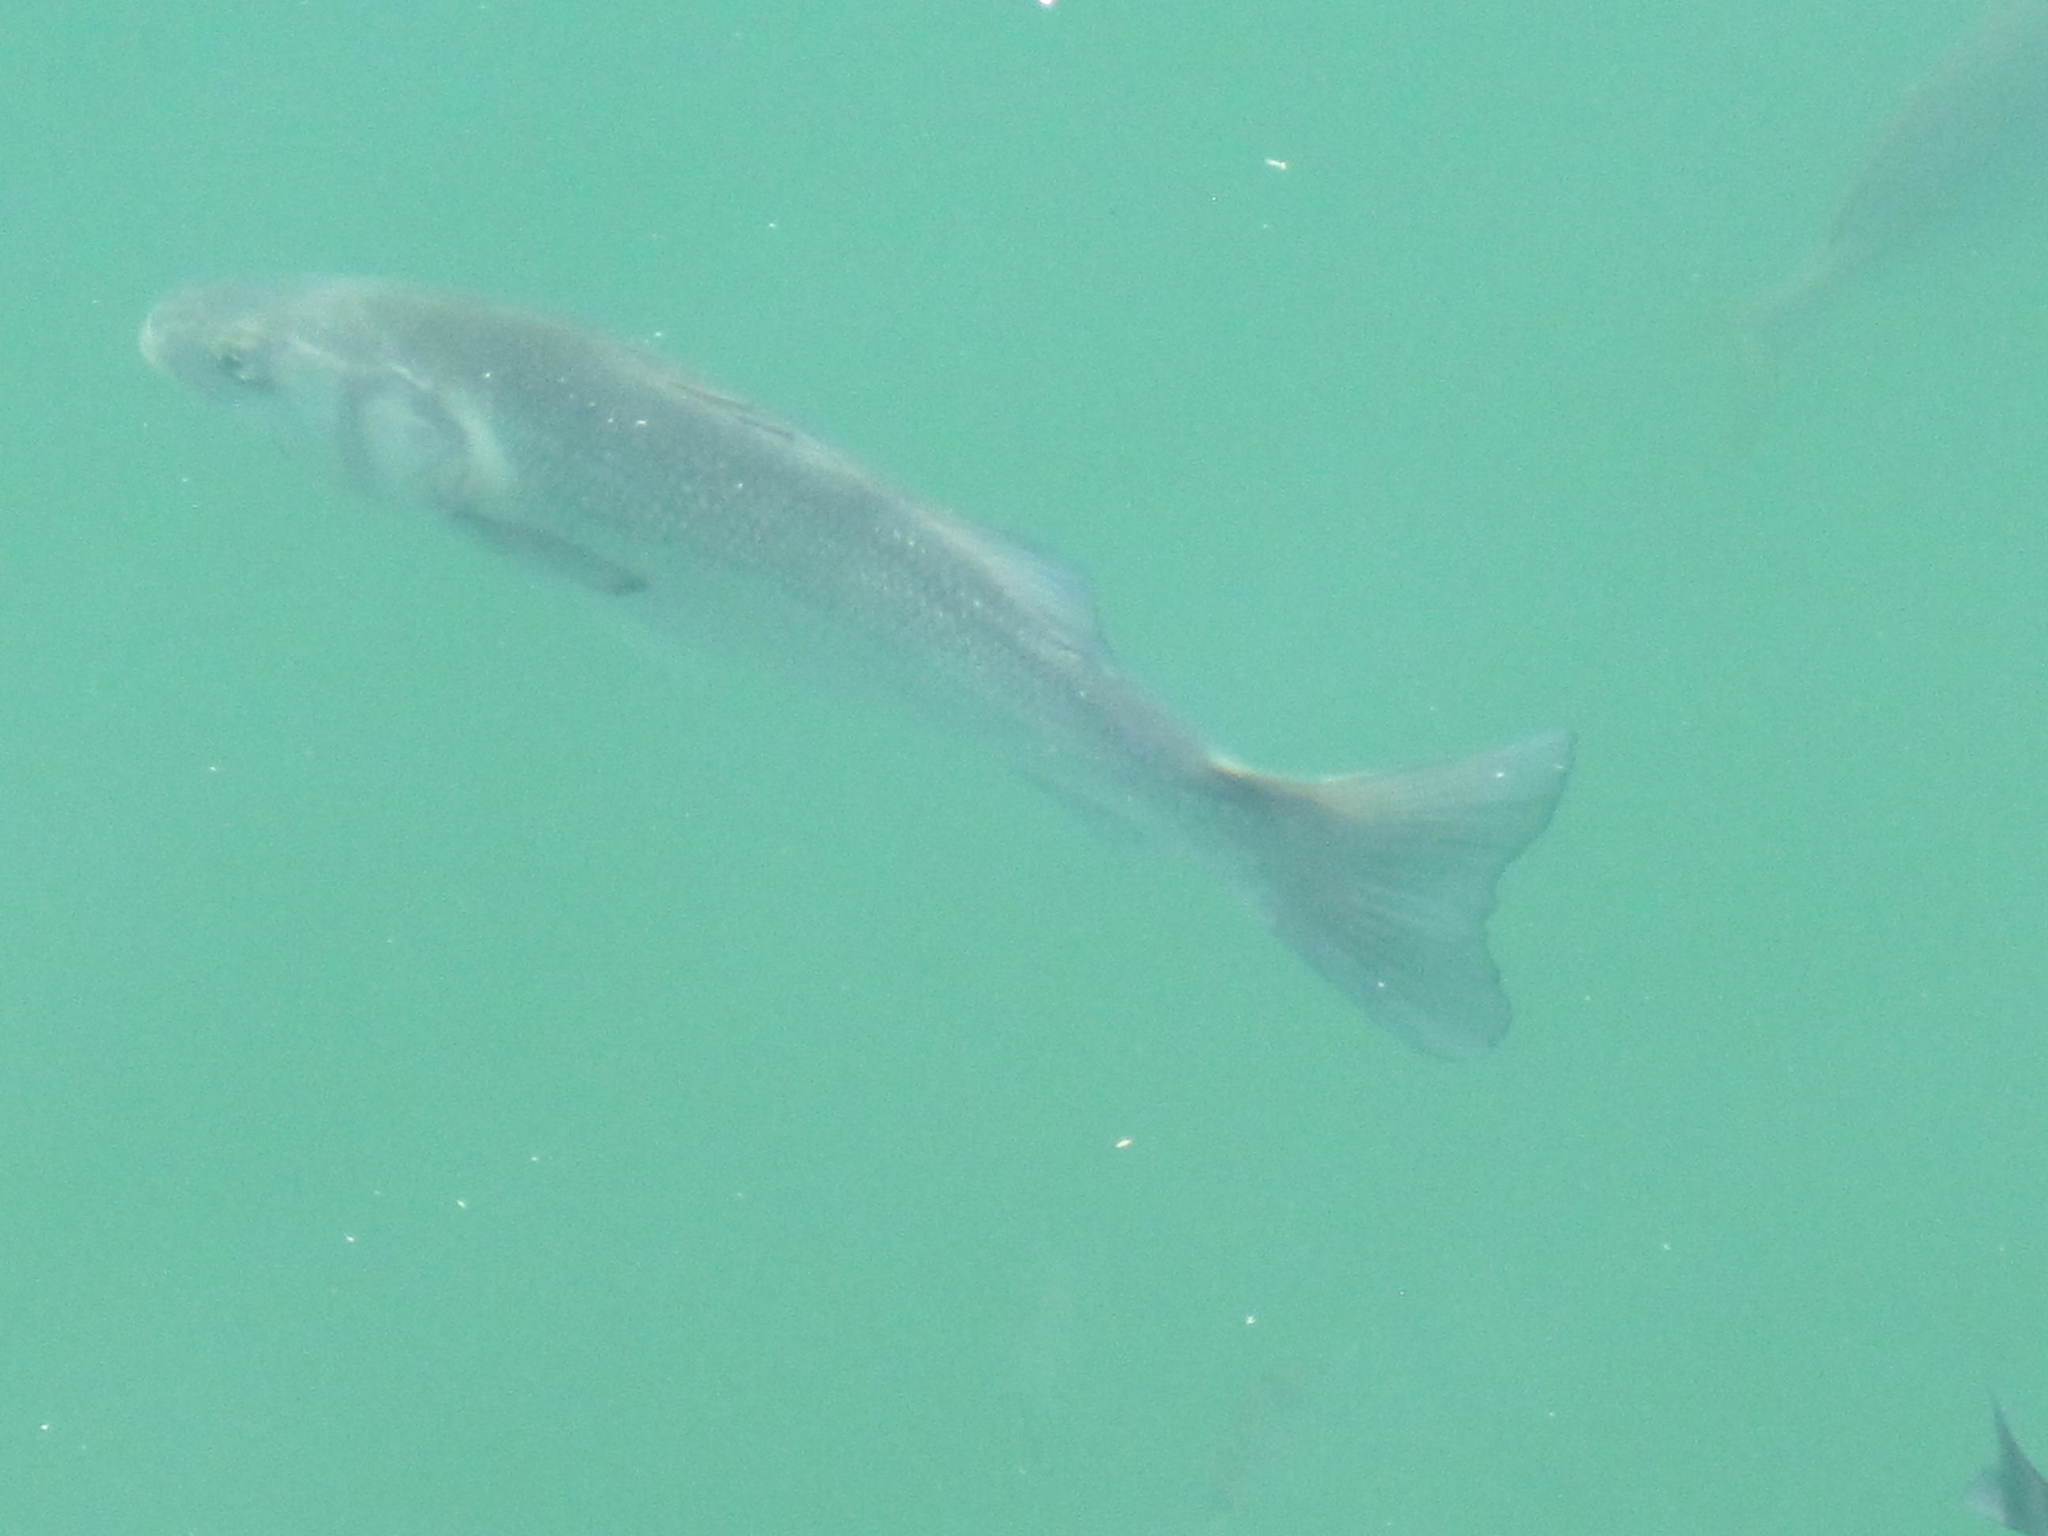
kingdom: Animalia
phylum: Chordata
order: Perciformes
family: Moronidae
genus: Dicentrarchus
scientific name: Dicentrarchus labrax
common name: European seabass
